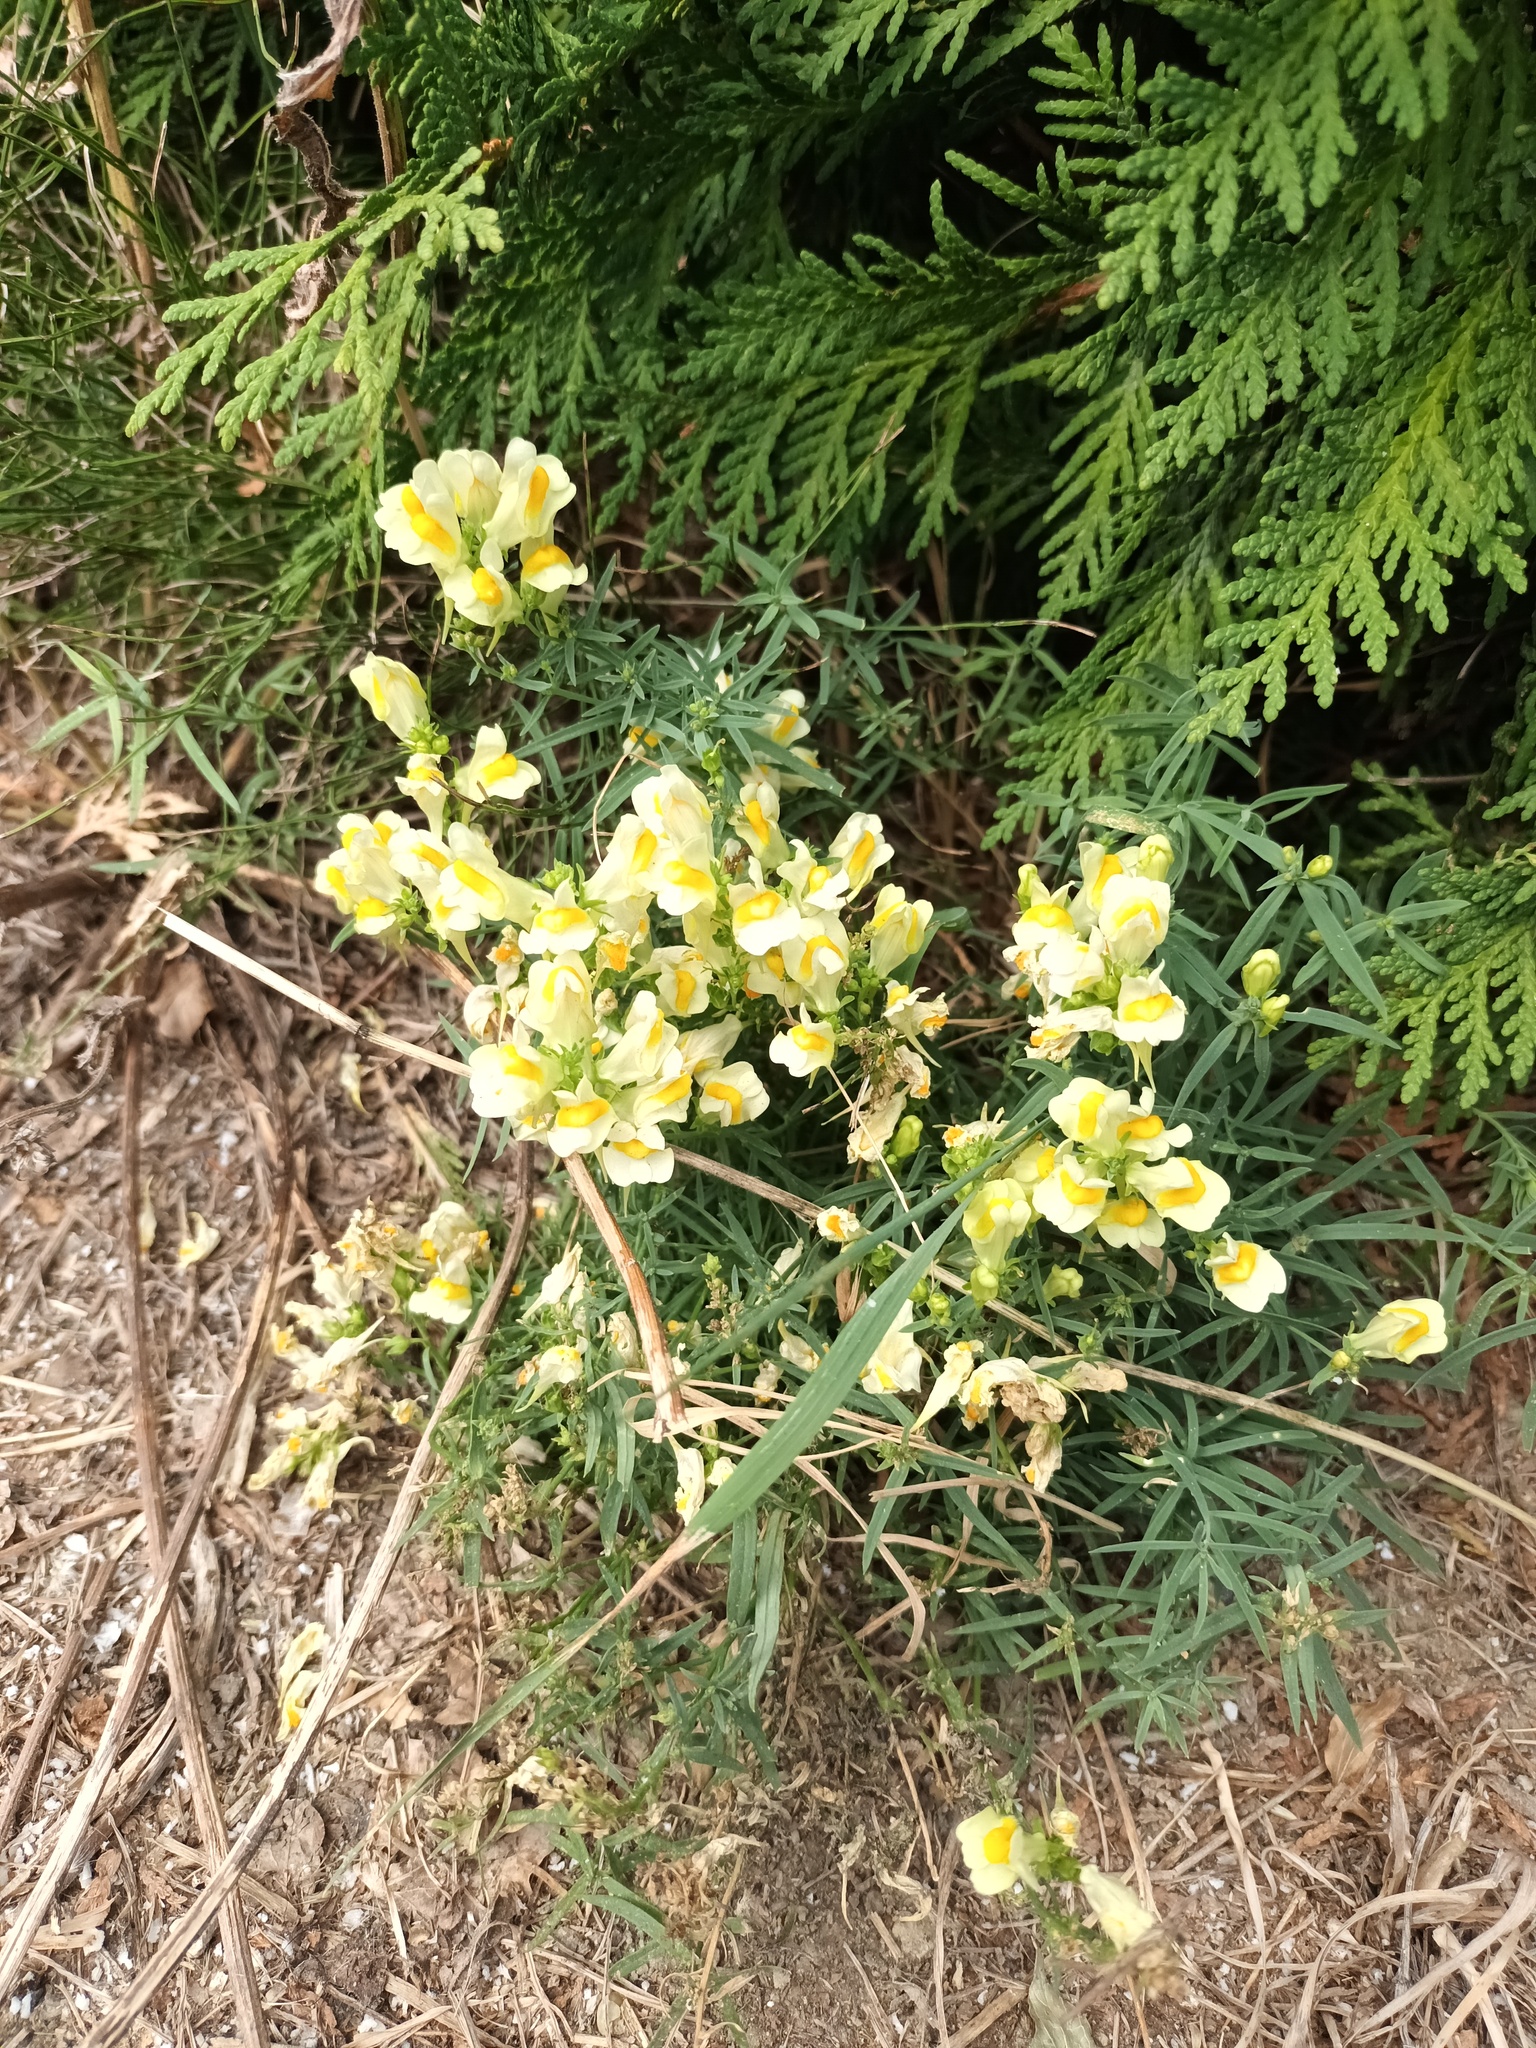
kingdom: Plantae
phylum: Tracheophyta
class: Magnoliopsida
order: Lamiales
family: Plantaginaceae
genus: Linaria
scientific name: Linaria vulgaris
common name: Butter and eggs
